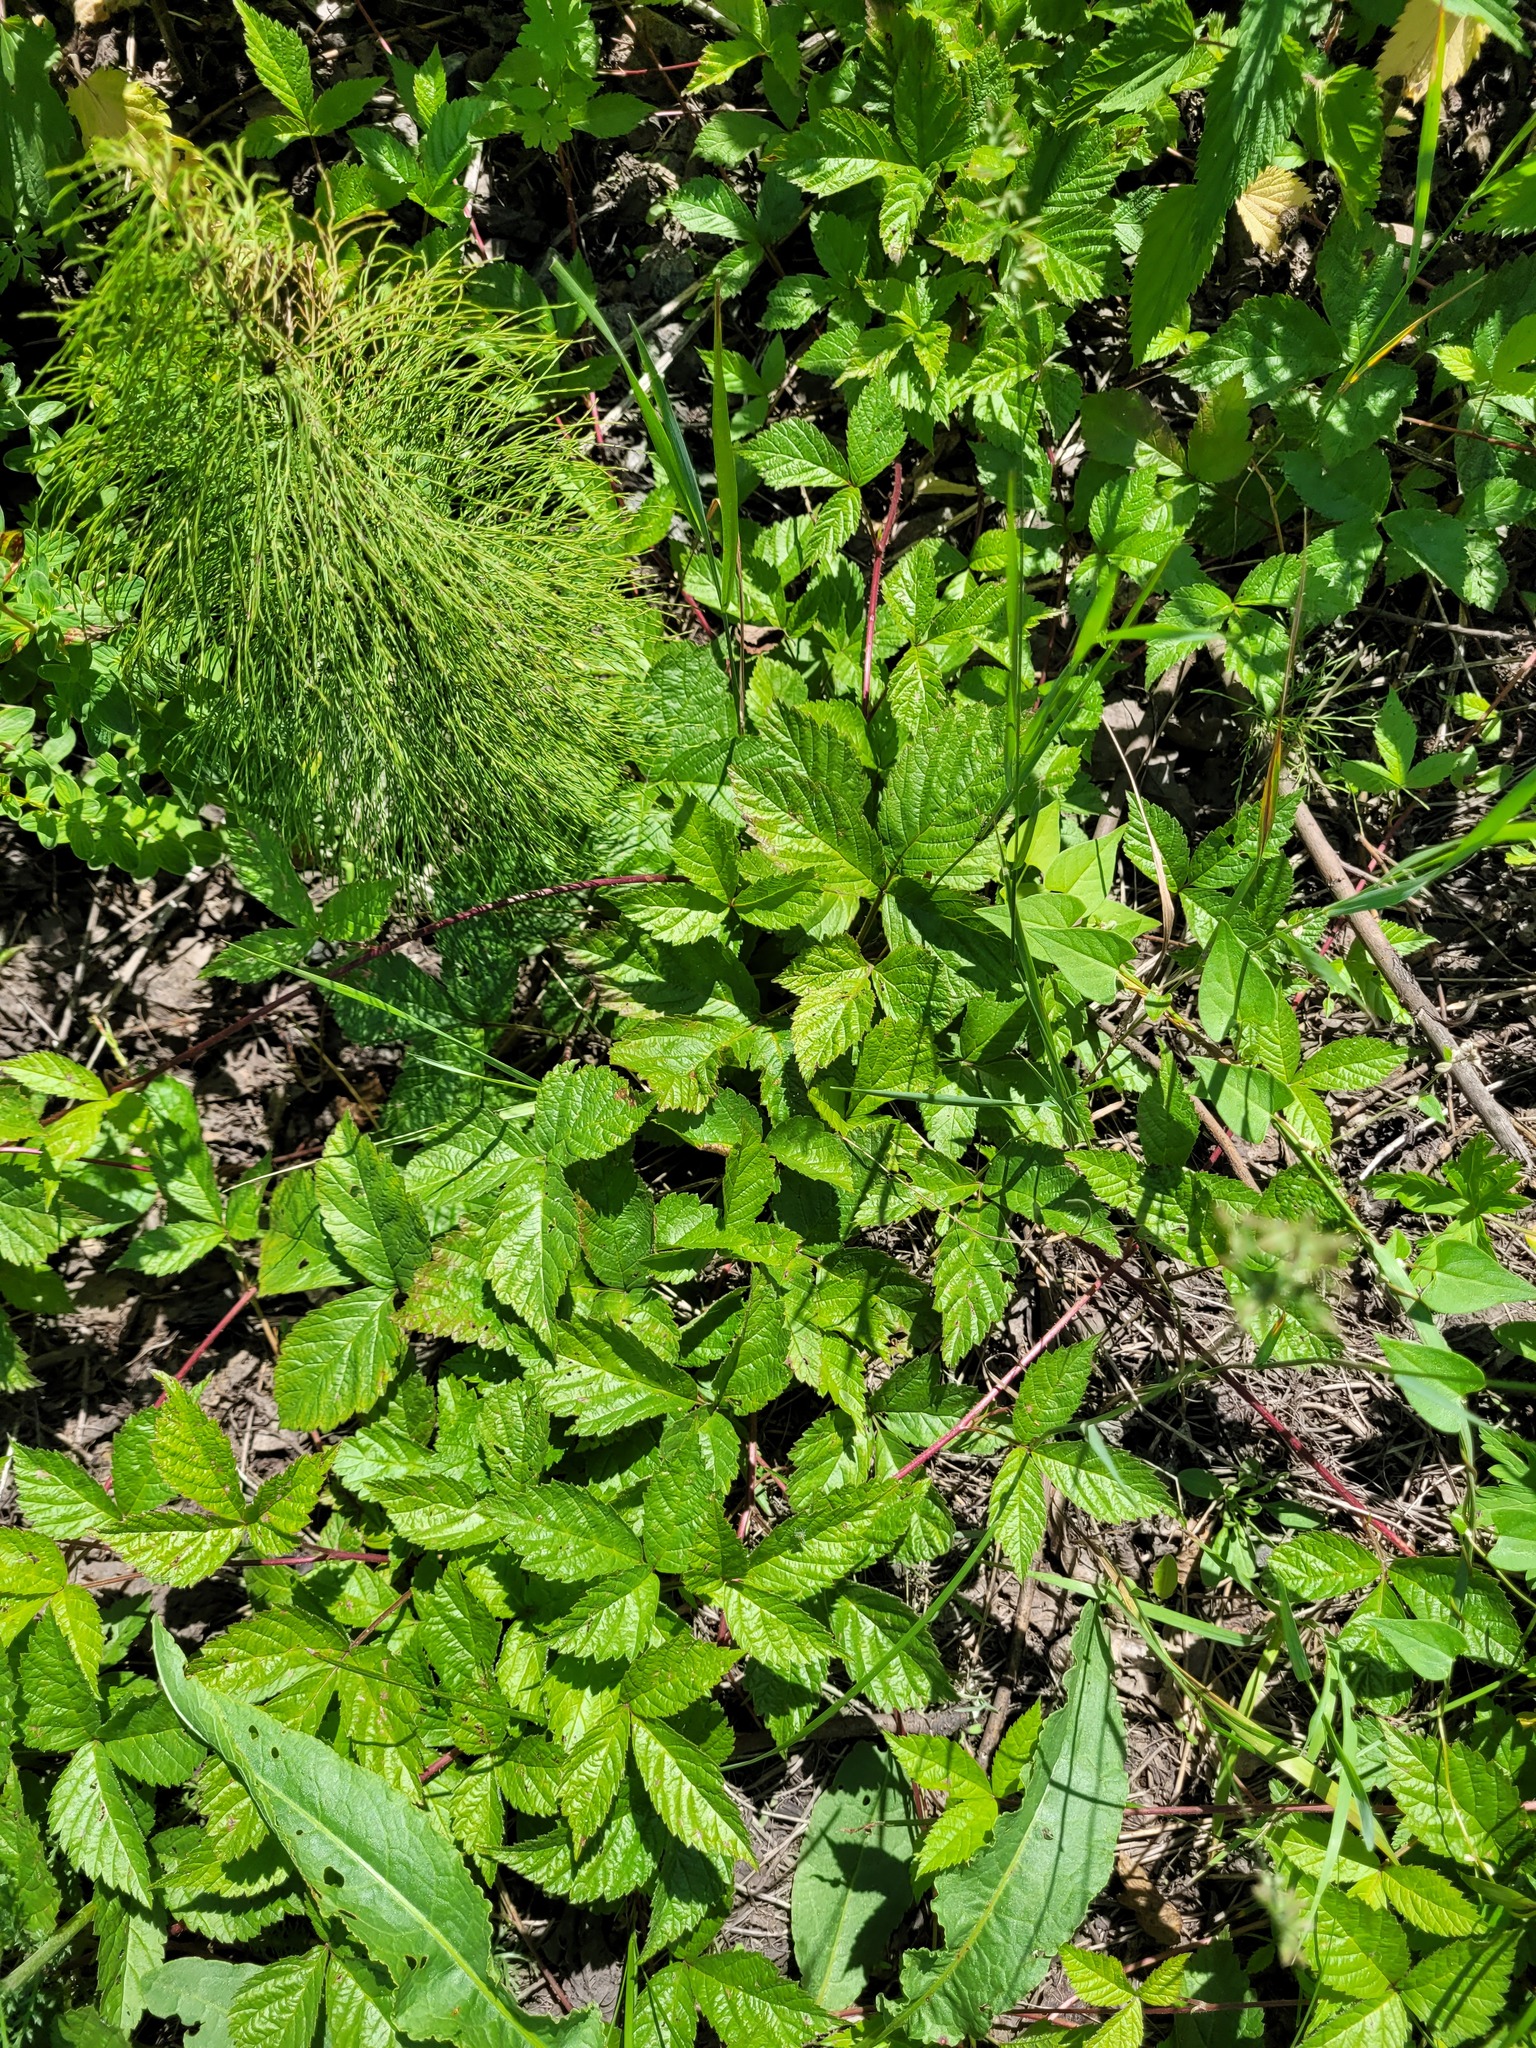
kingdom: Plantae
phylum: Tracheophyta
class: Magnoliopsida
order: Rosales
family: Rosaceae
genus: Rubus
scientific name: Rubus saxatilis
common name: Stone bramble
